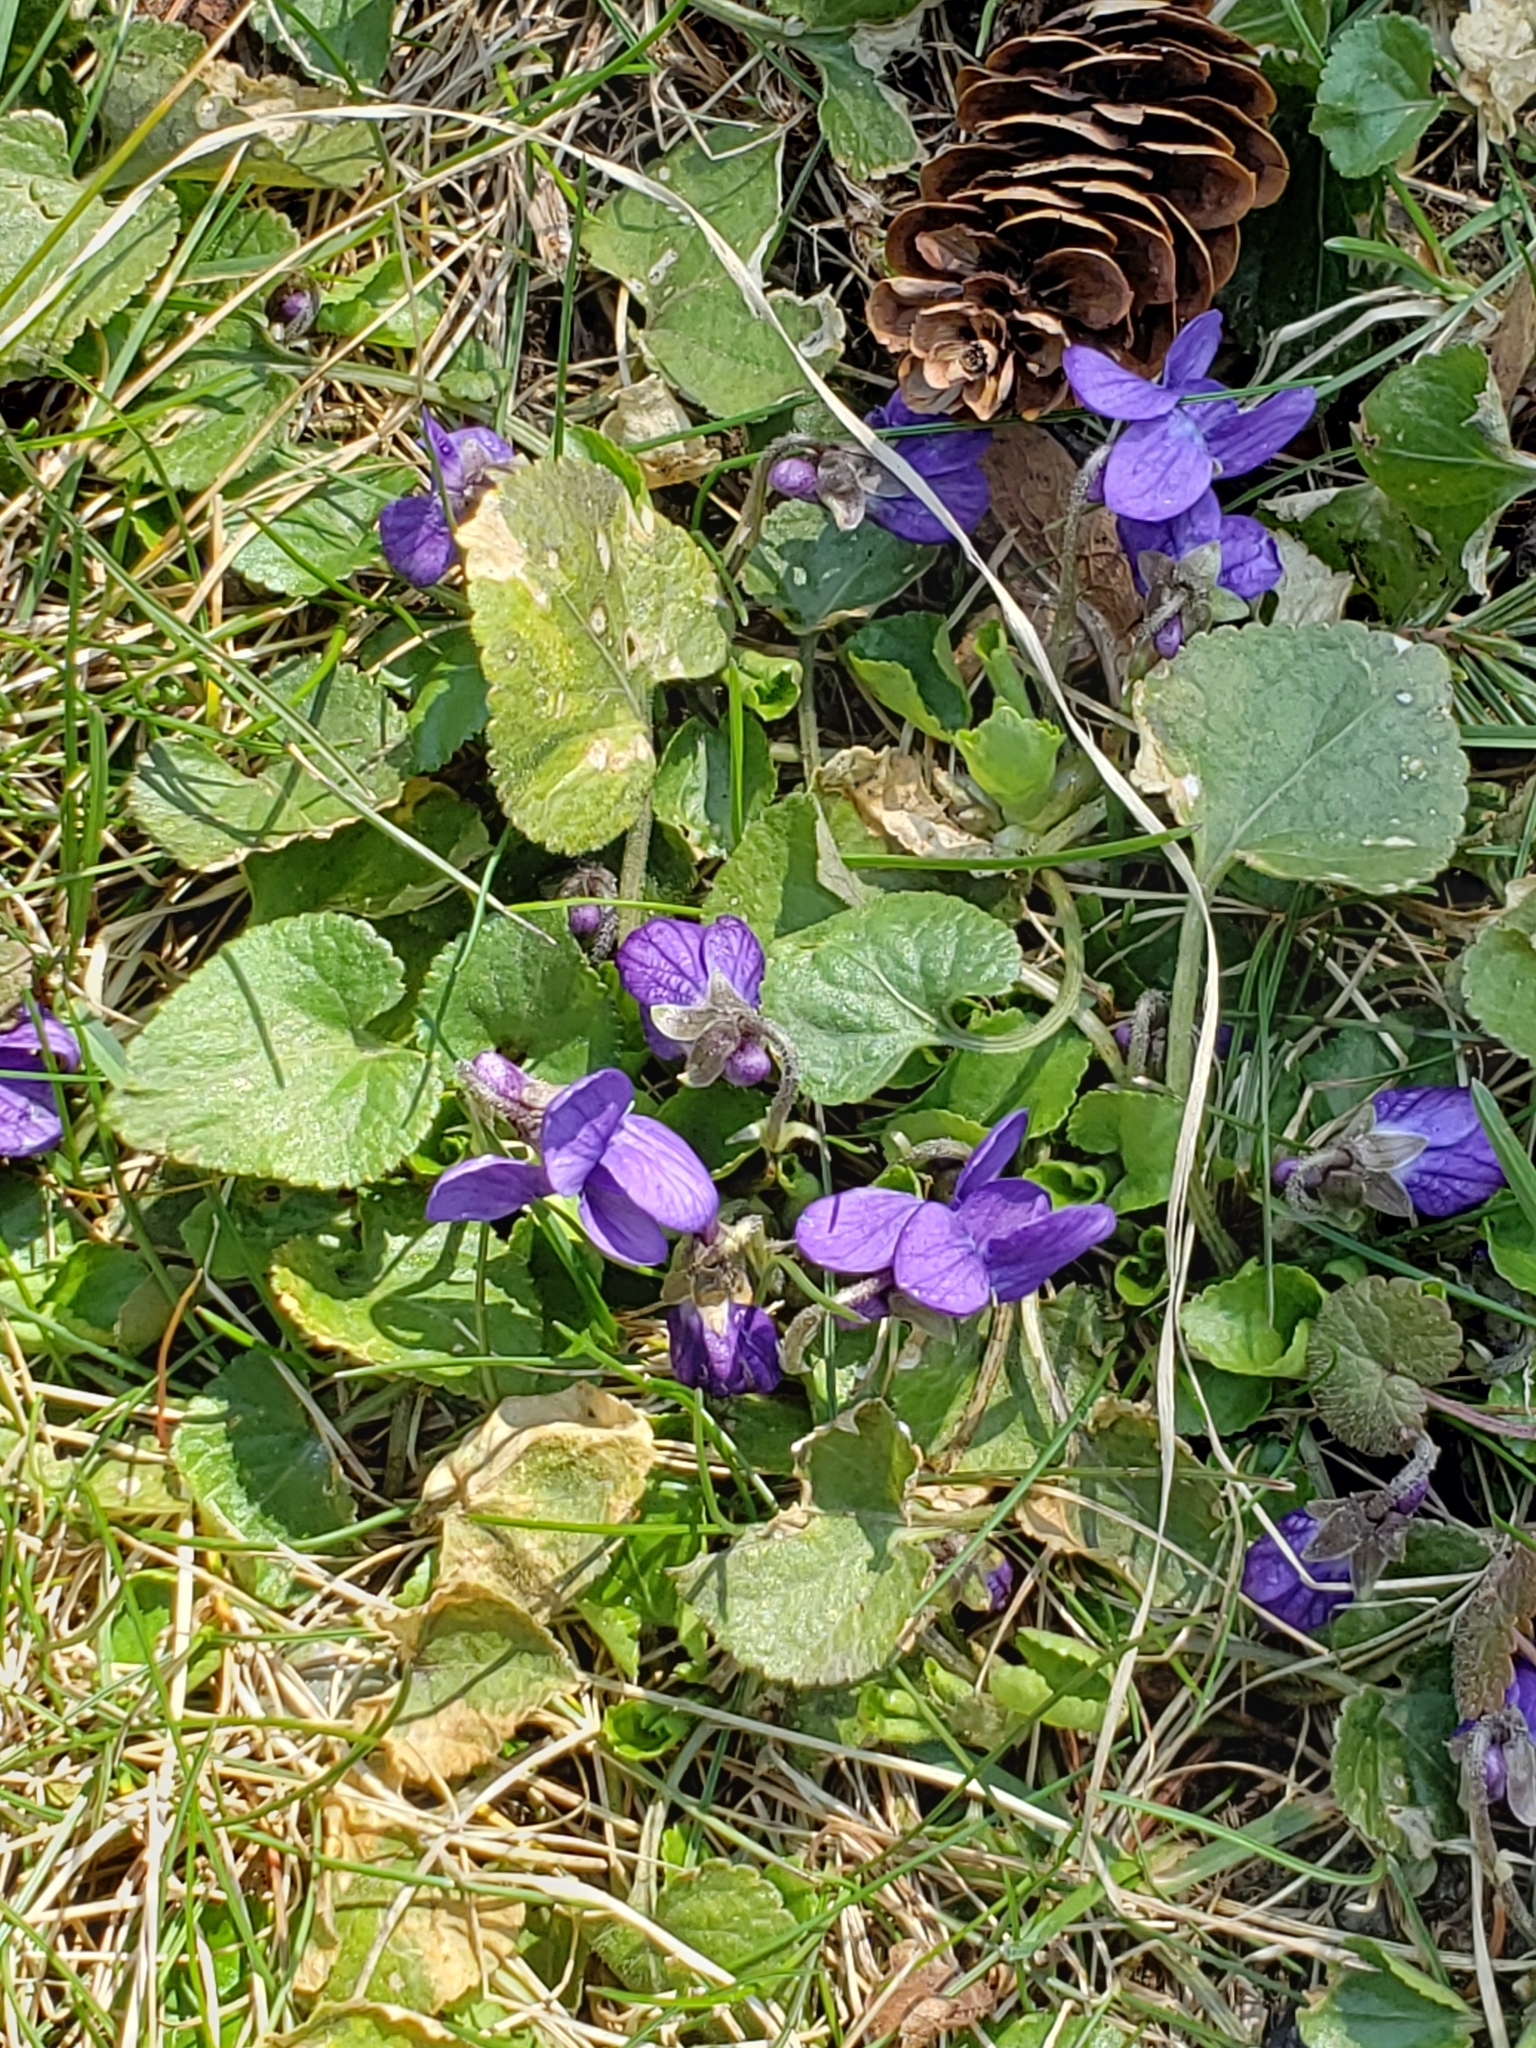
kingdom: Plantae
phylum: Tracheophyta
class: Magnoliopsida
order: Malpighiales
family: Violaceae
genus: Viola
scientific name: Viola sororia
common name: Dooryard violet
